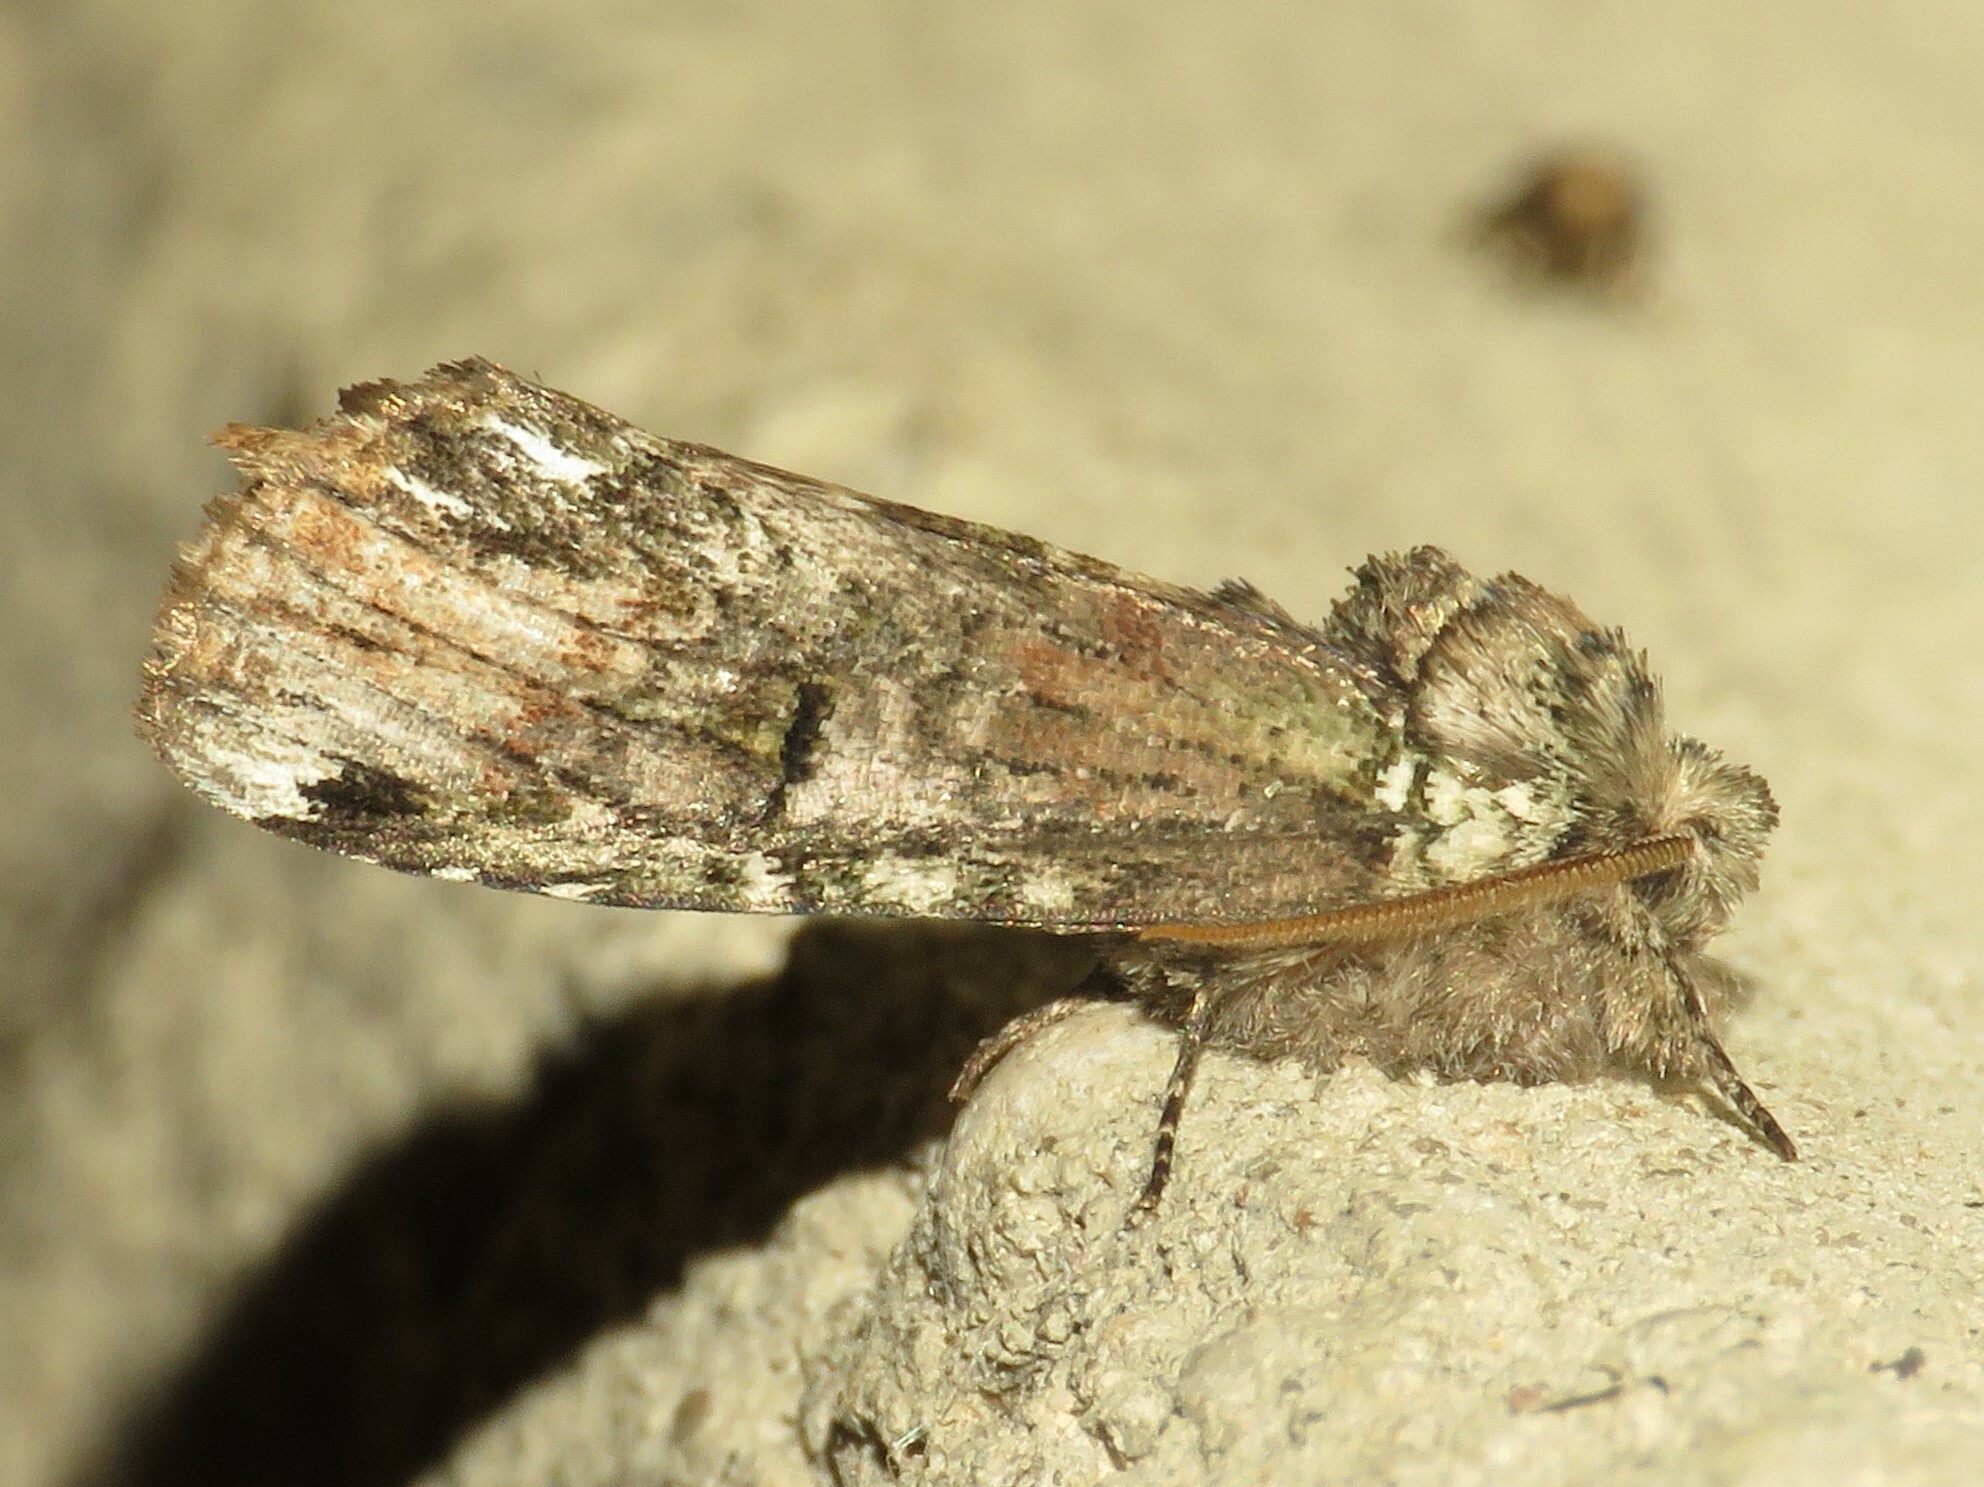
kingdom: Animalia
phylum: Arthropoda
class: Insecta
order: Lepidoptera
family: Notodontidae
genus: Schizura
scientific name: Schizura
